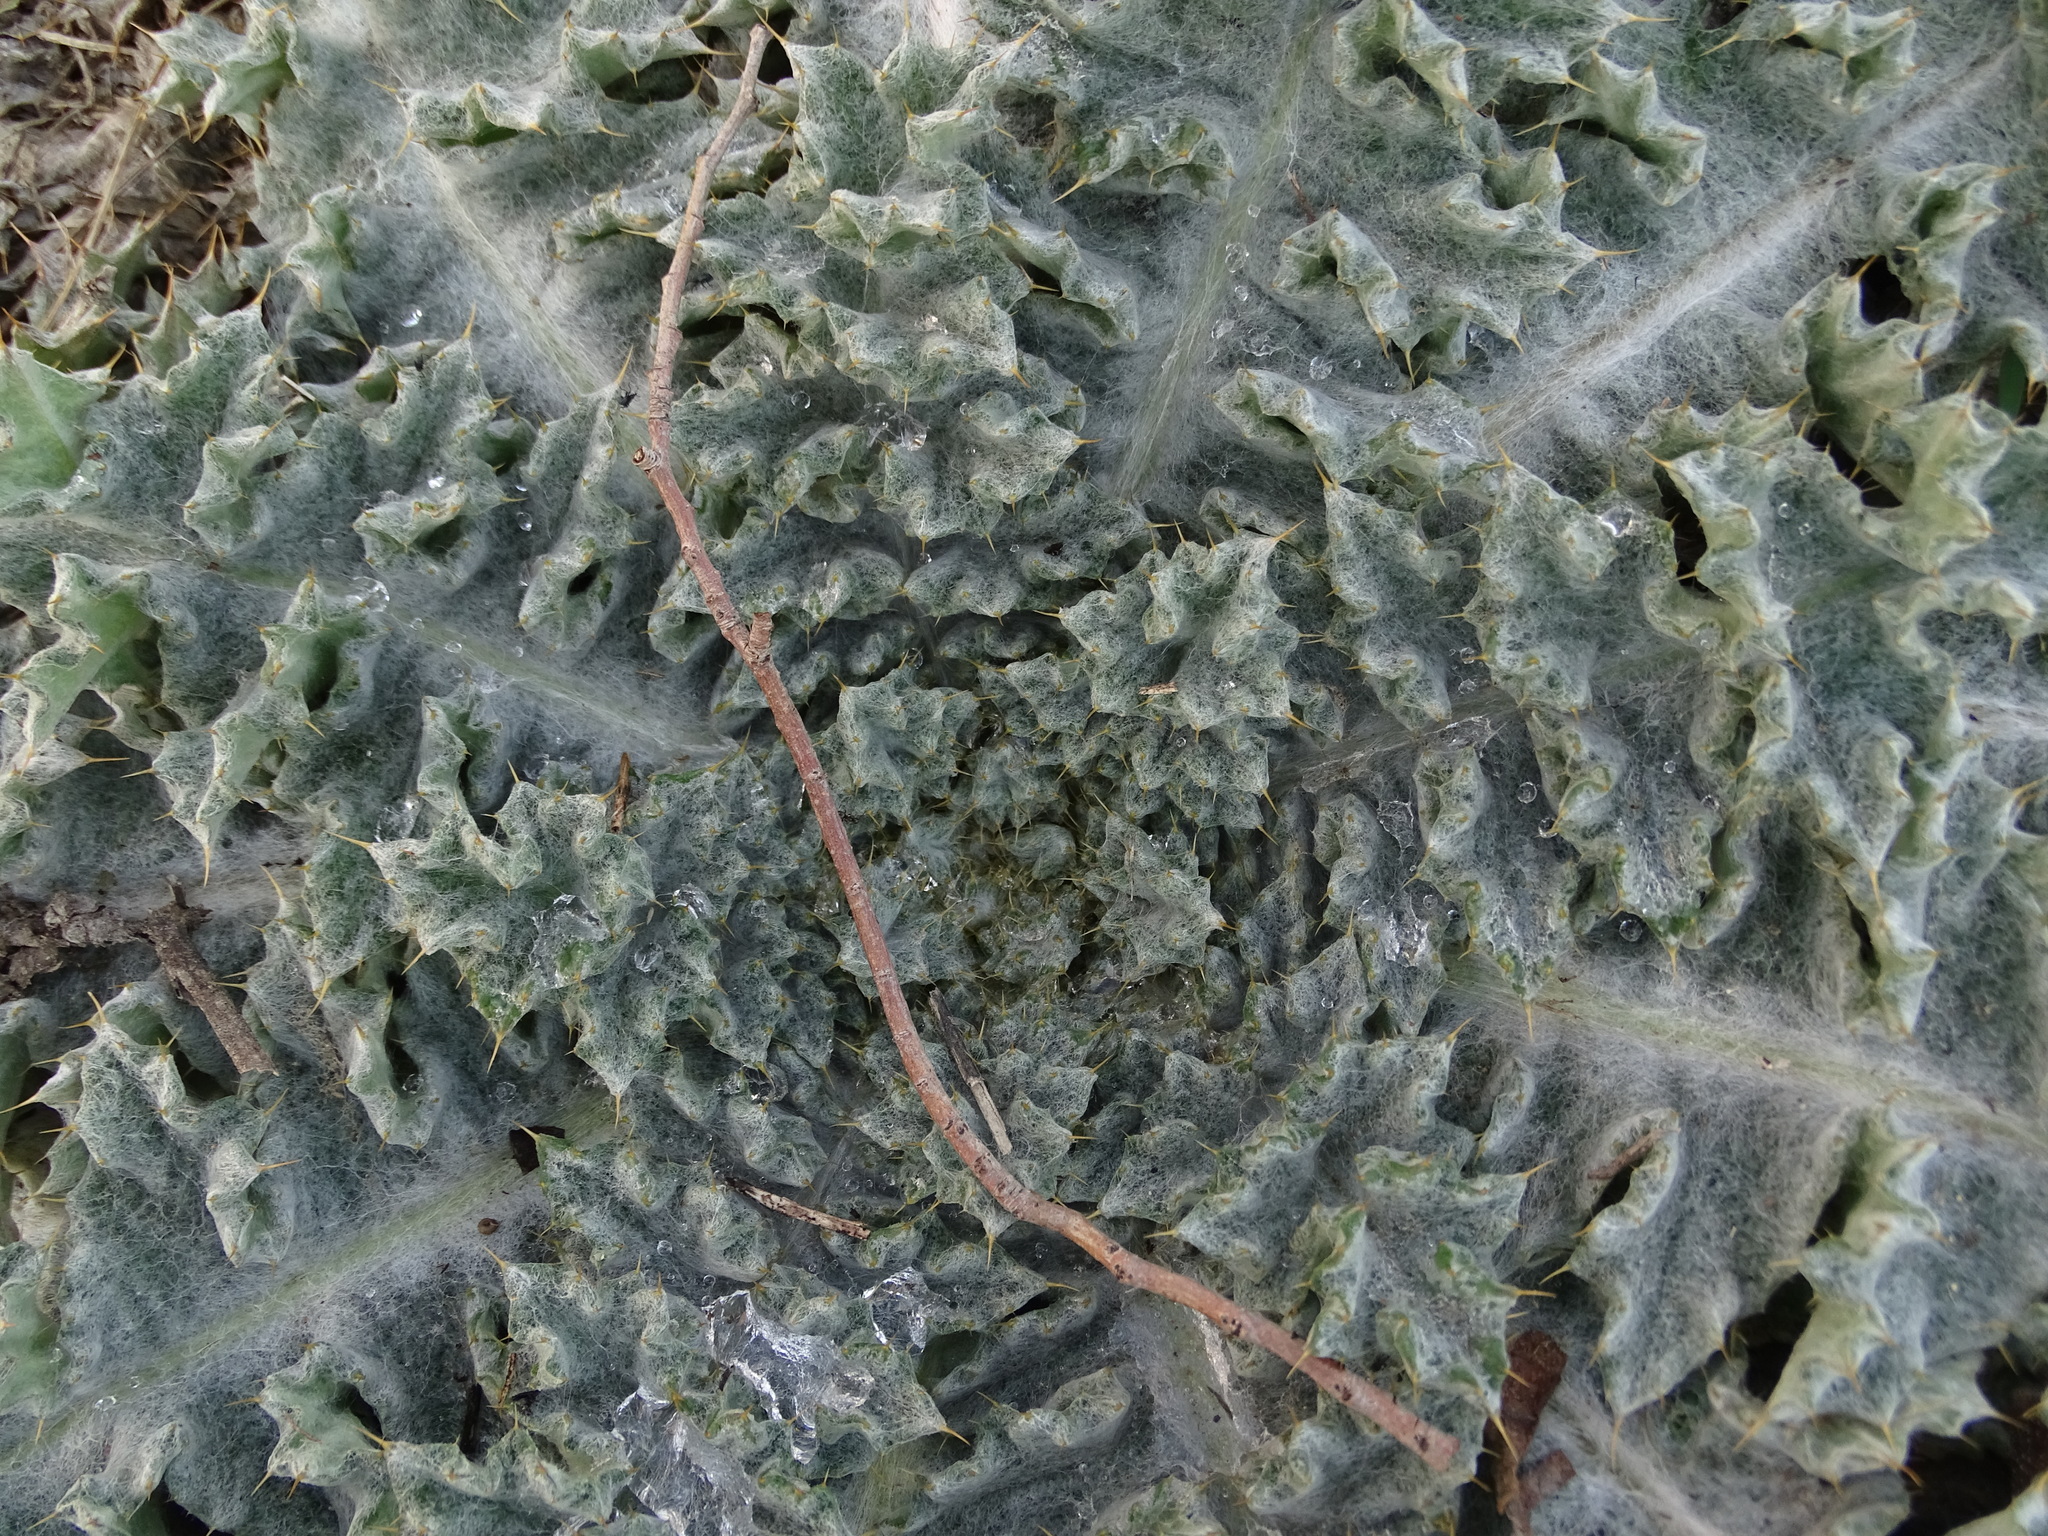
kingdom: Plantae
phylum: Tracheophyta
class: Magnoliopsida
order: Asterales
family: Asteraceae
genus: Onopordum
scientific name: Onopordum acanthium
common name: Scotch thistle
